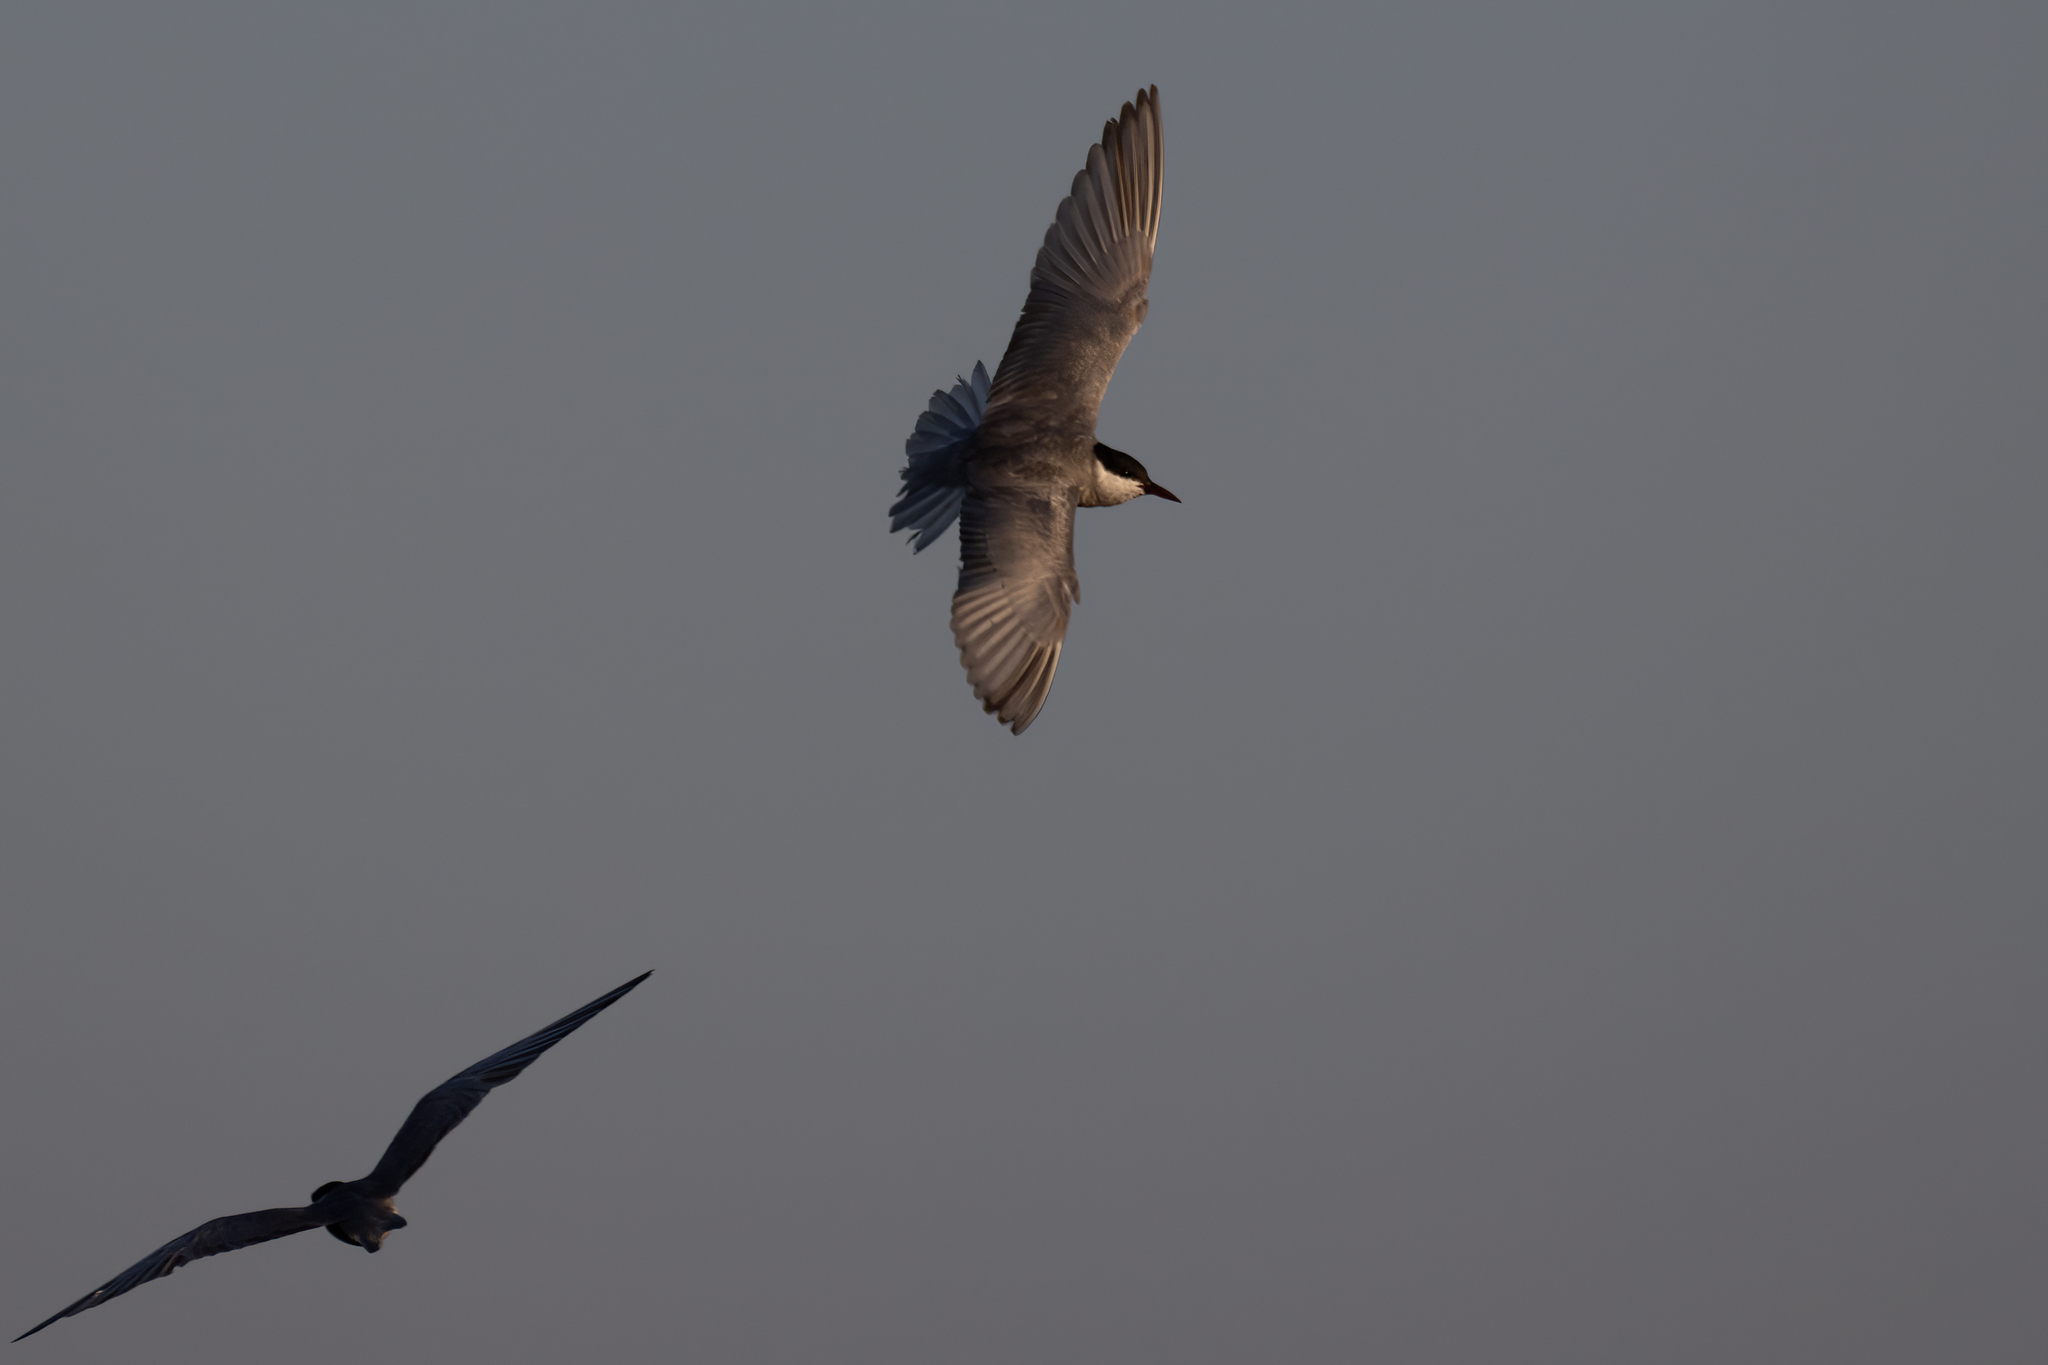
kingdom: Animalia
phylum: Chordata
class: Aves
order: Charadriiformes
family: Laridae
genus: Chlidonias
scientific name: Chlidonias hybrida
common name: Whiskered tern
